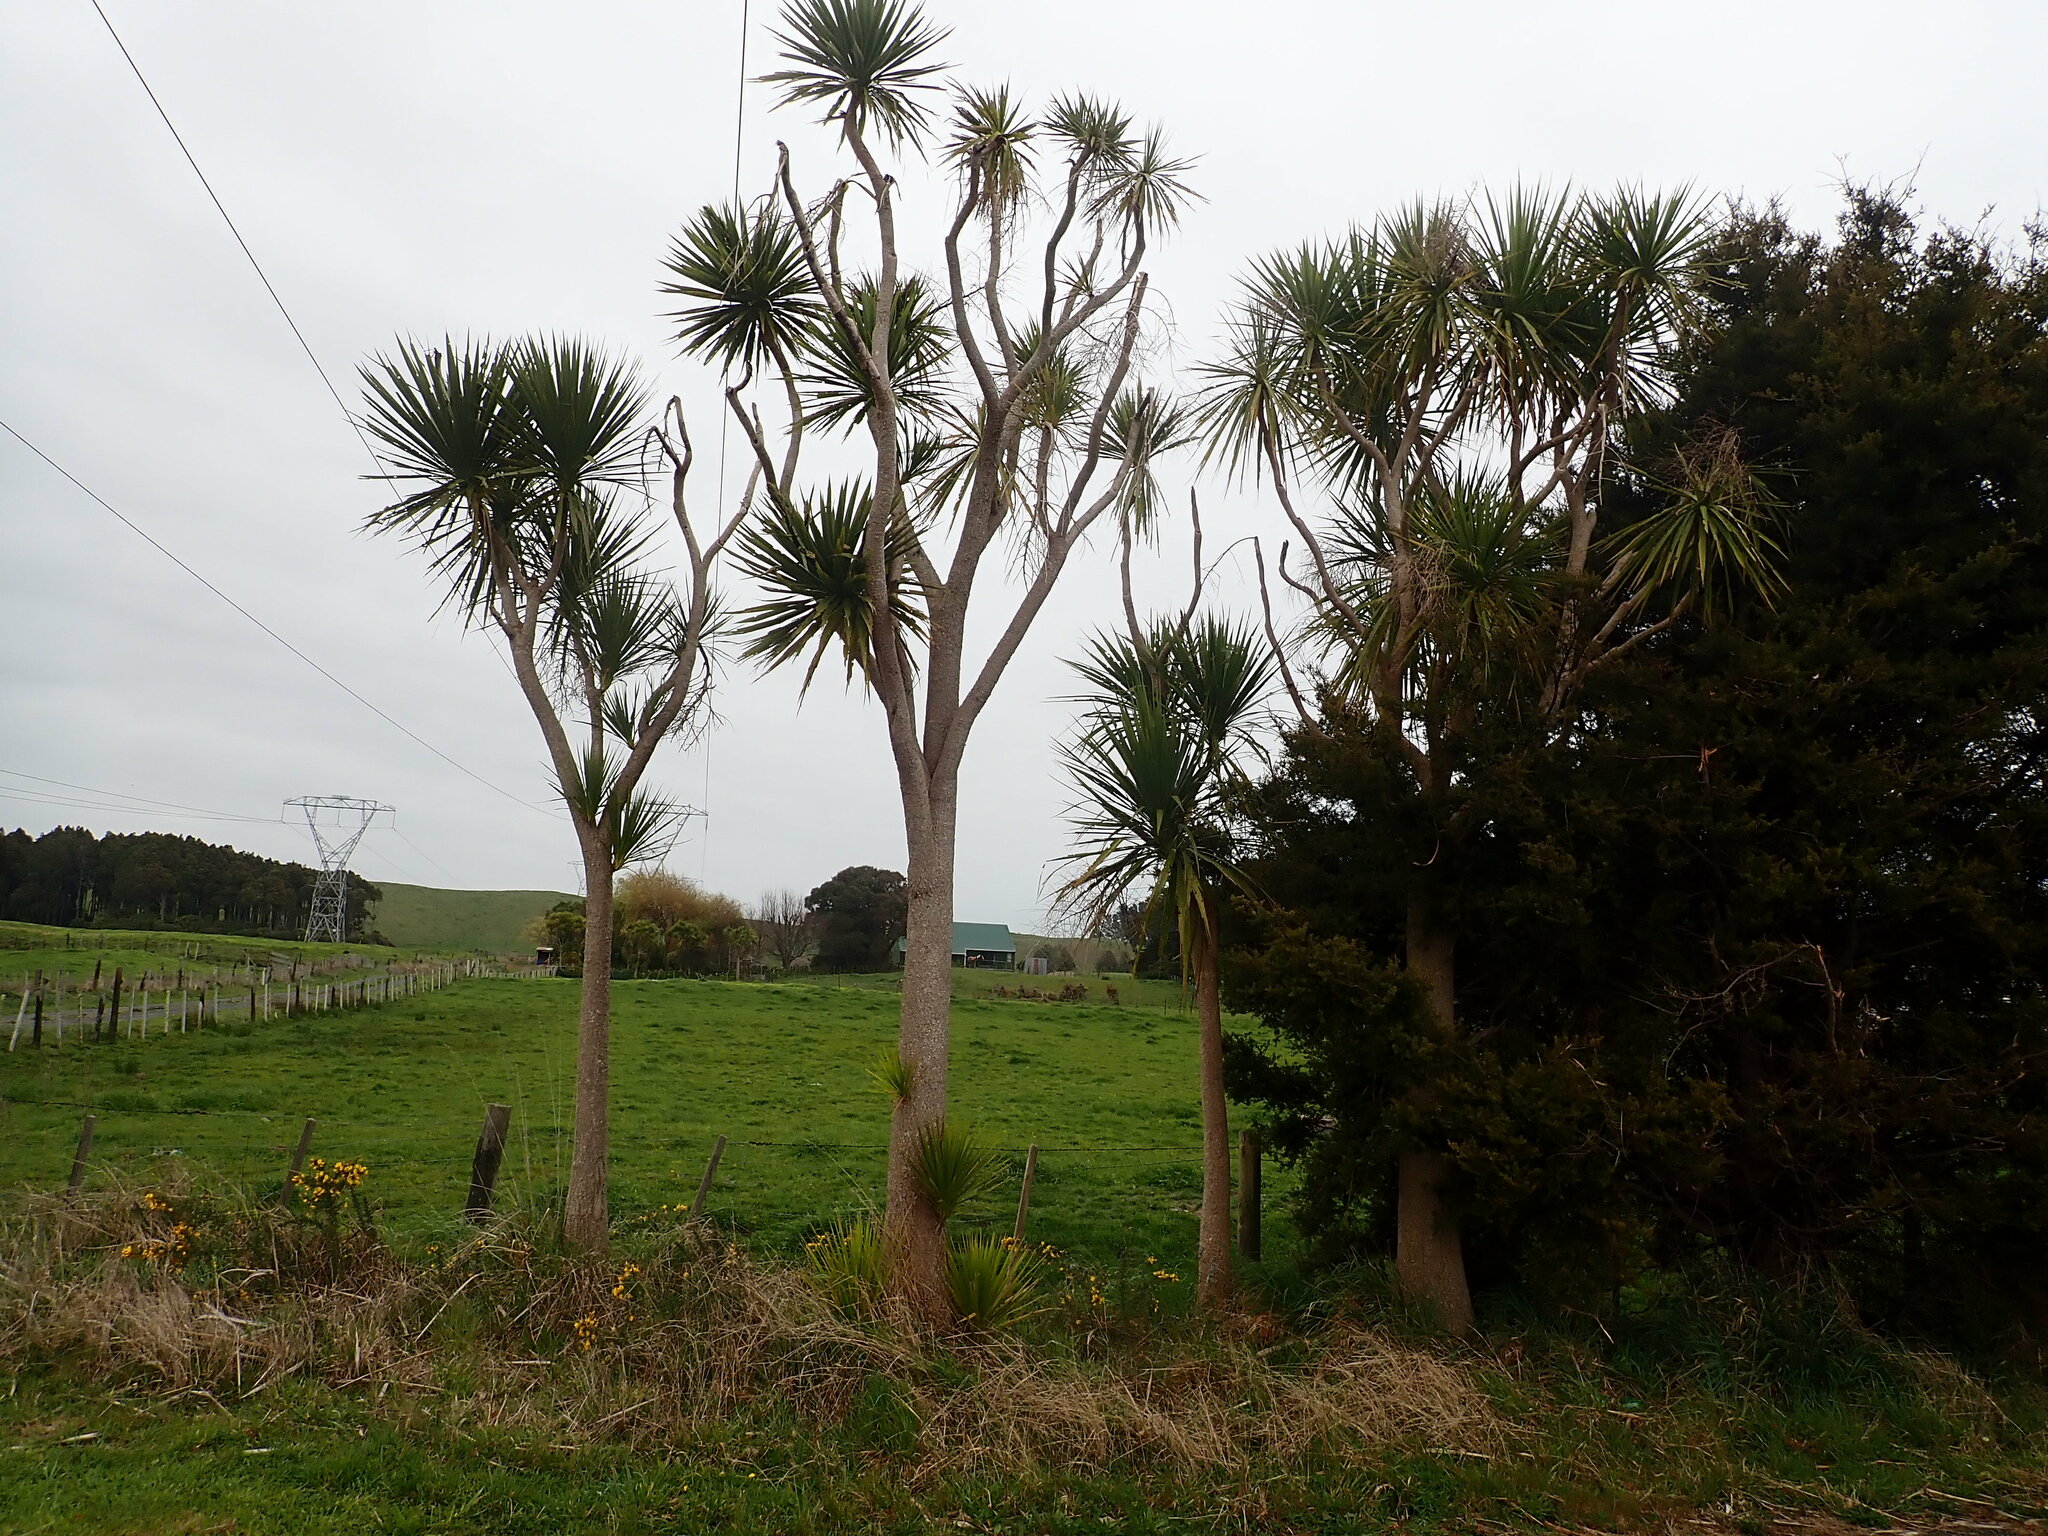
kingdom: Plantae
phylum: Tracheophyta
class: Liliopsida
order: Asparagales
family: Asparagaceae
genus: Cordyline
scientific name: Cordyline australis
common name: Cabbage-palm
